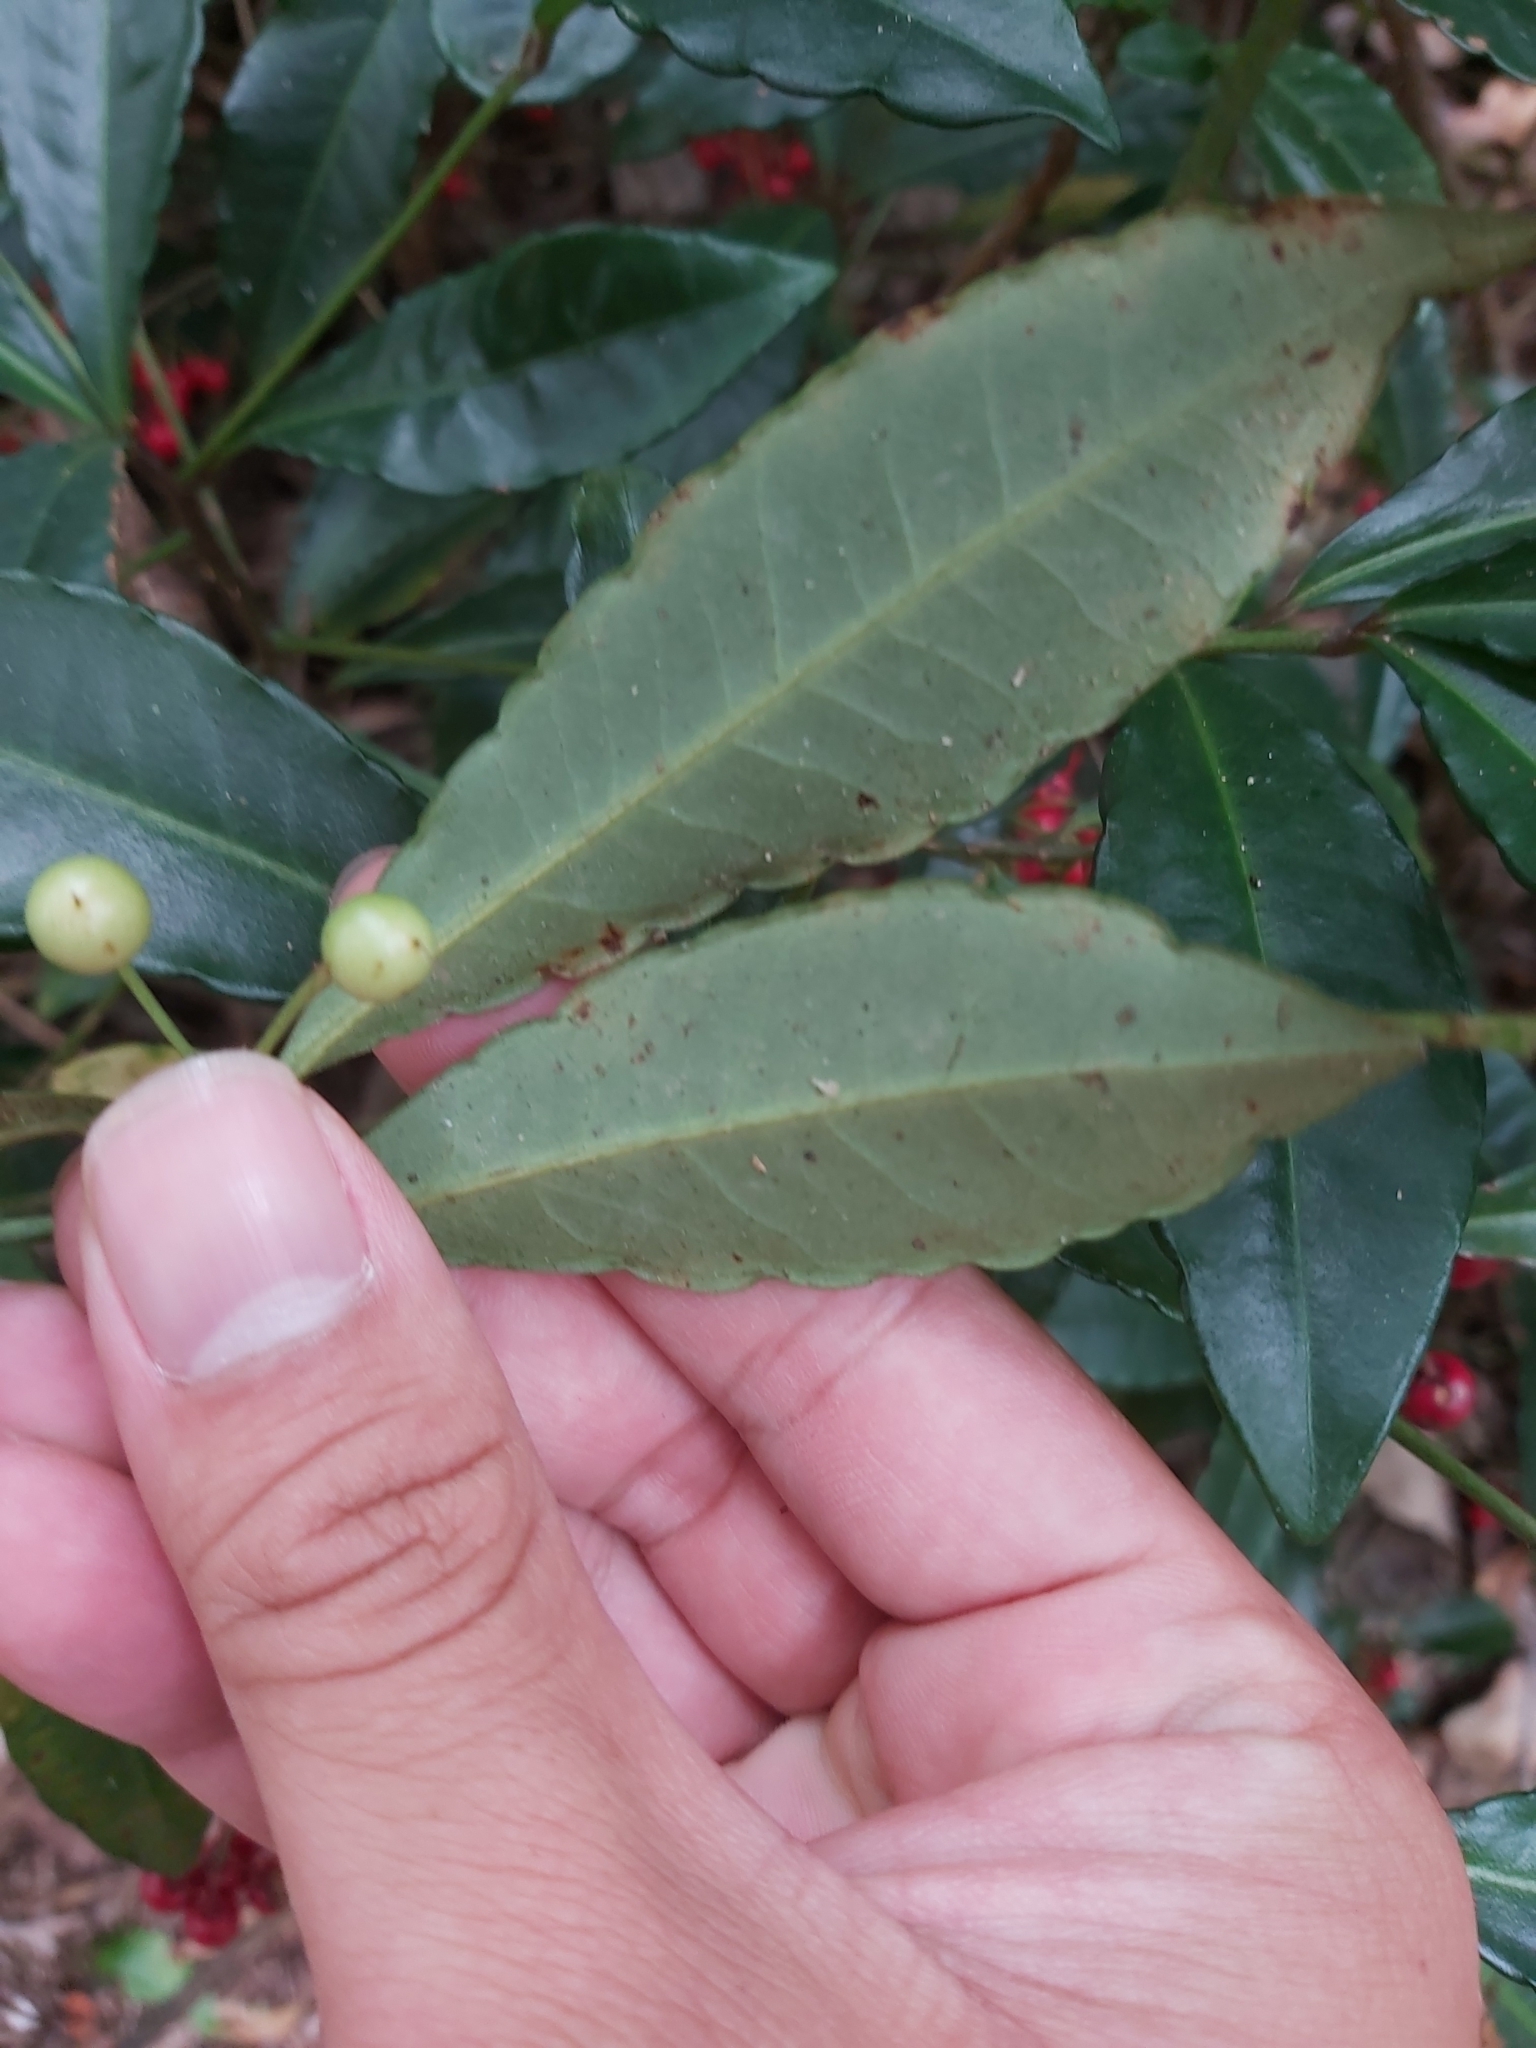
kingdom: Plantae
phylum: Tracheophyta
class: Magnoliopsida
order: Ericales
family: Primulaceae
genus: Ardisia
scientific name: Ardisia crenata
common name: Hen's eyes
